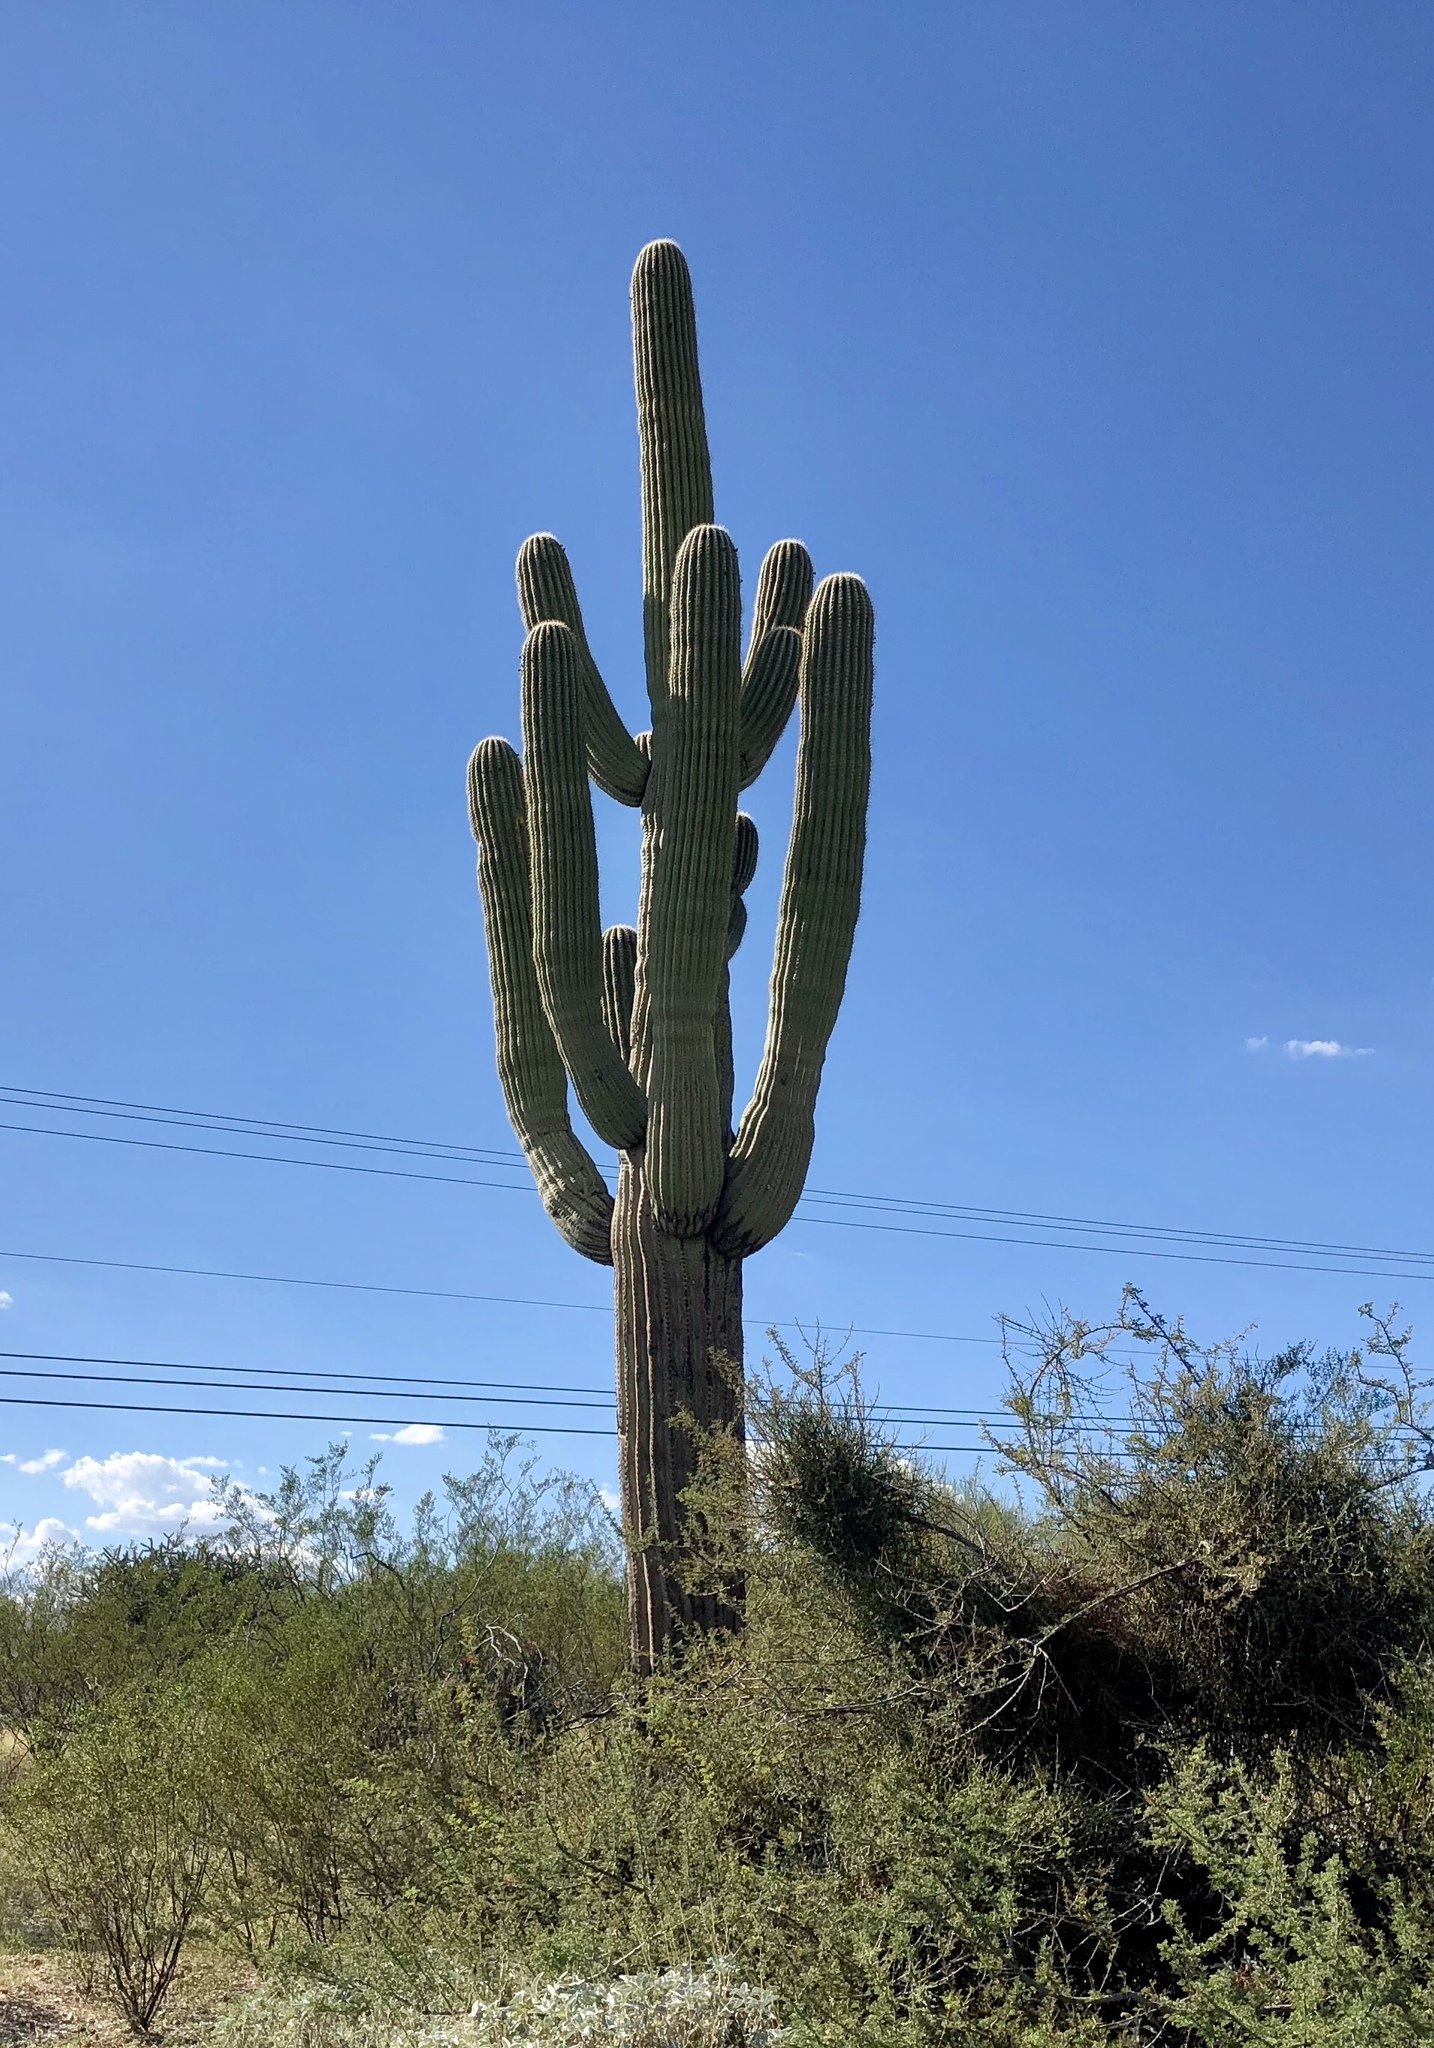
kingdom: Plantae
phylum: Tracheophyta
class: Magnoliopsida
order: Caryophyllales
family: Cactaceae
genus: Carnegiea
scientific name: Carnegiea gigantea
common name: Saguaro
